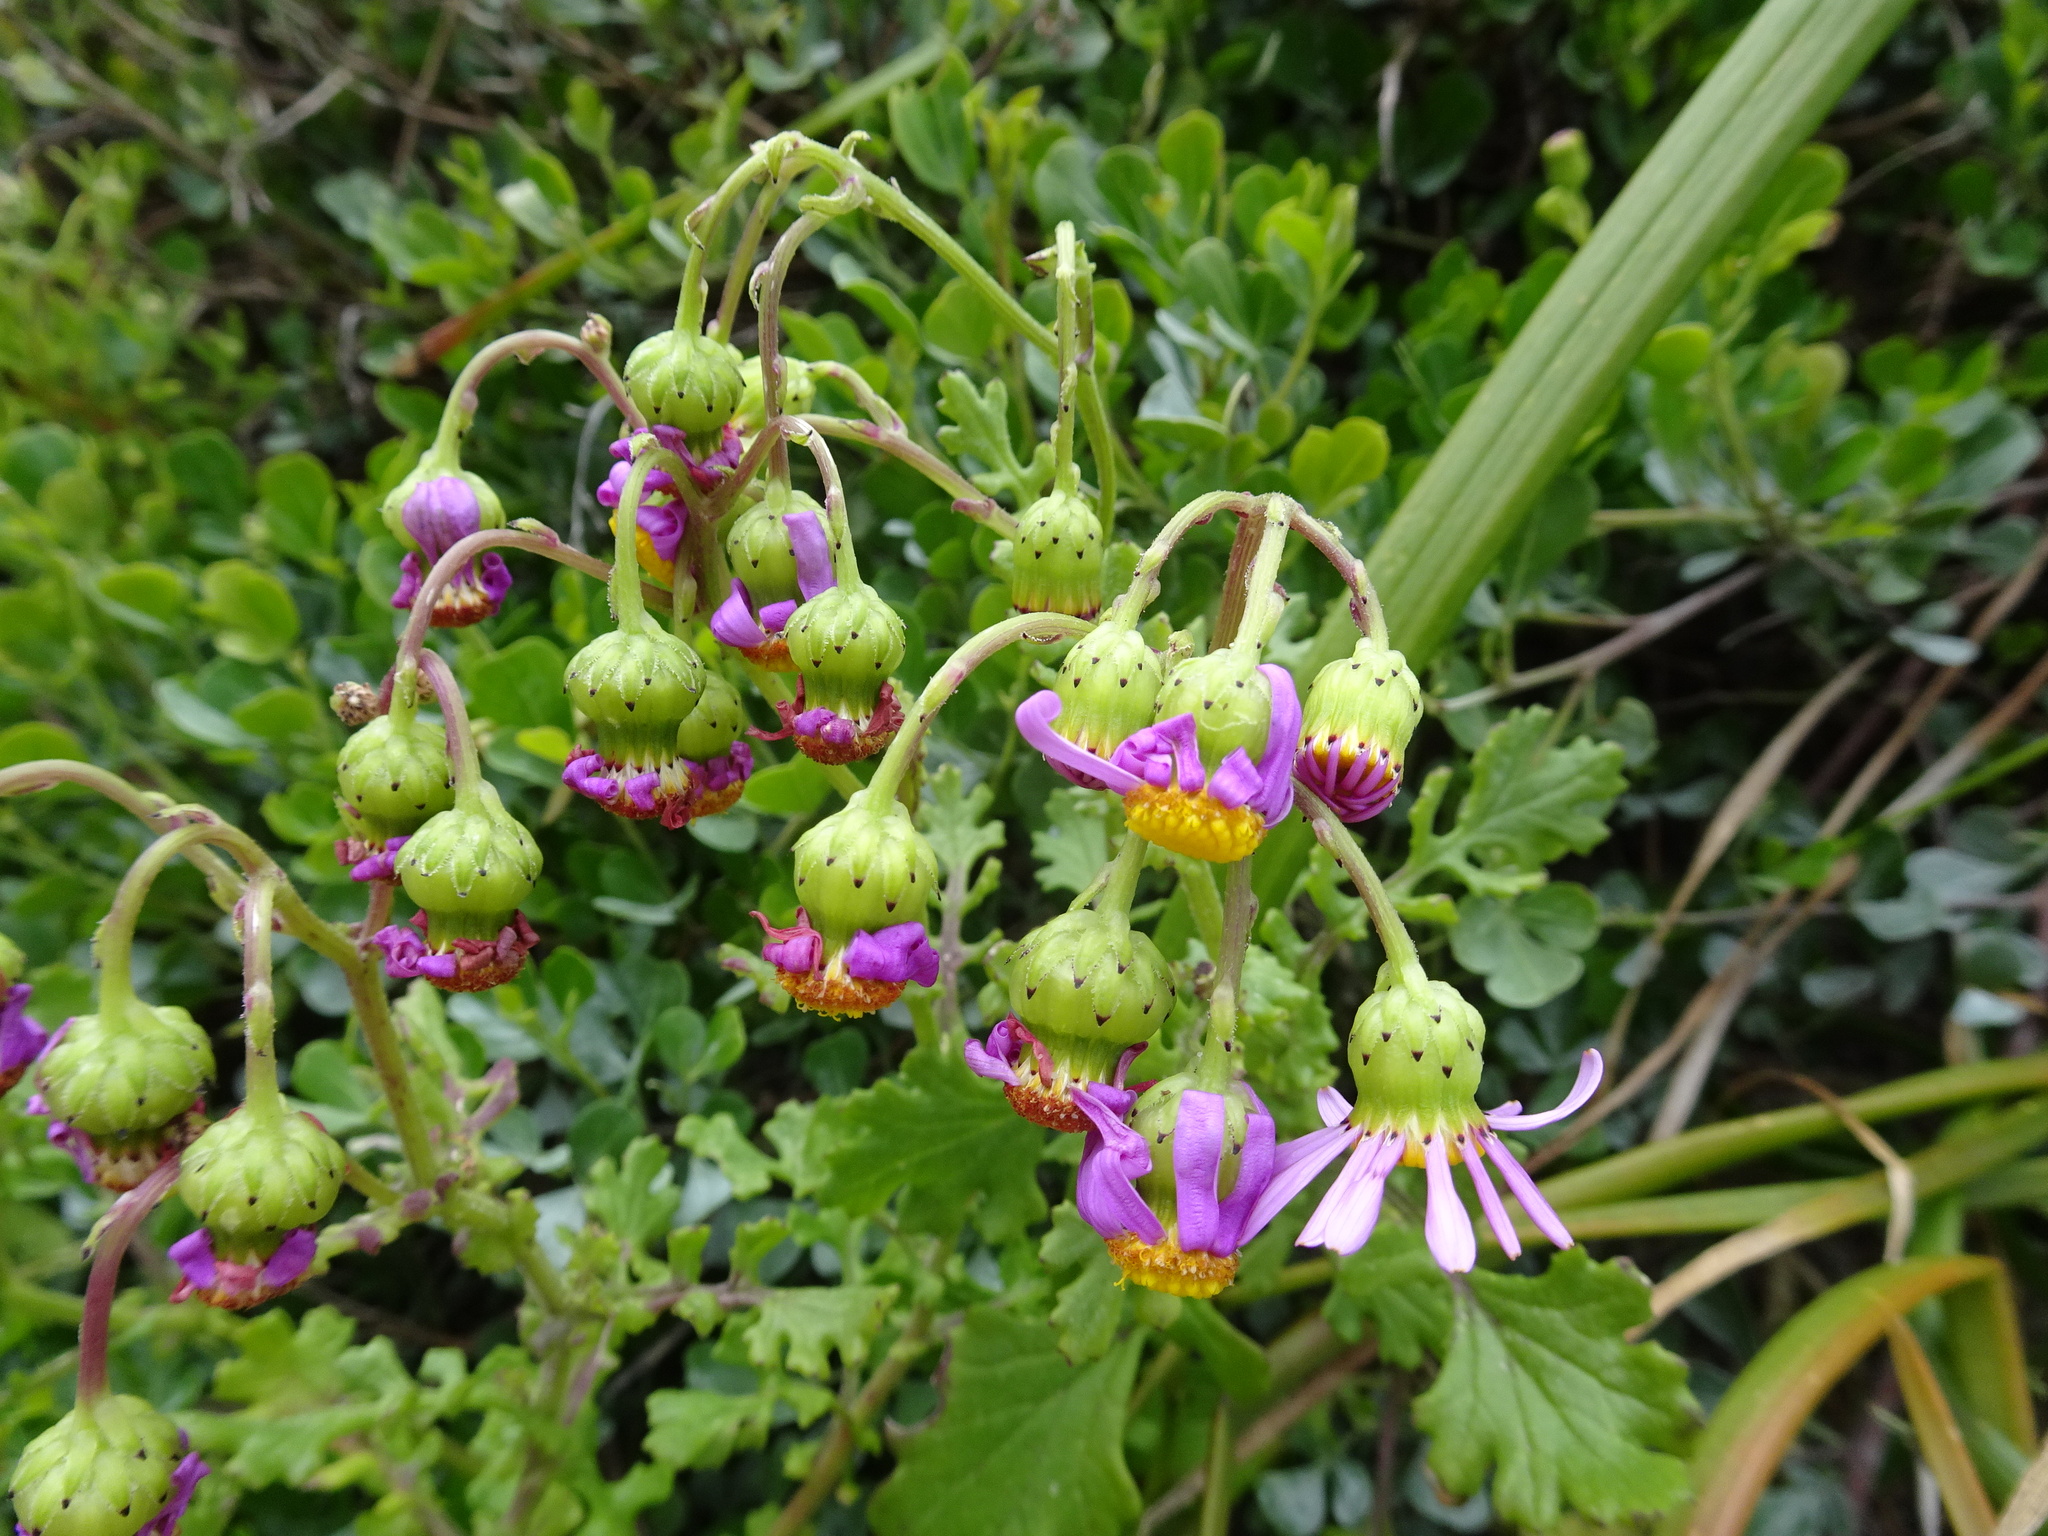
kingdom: Plantae
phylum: Tracheophyta
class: Magnoliopsida
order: Asterales
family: Asteraceae
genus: Senecio
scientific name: Senecio elegans
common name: Purple groundsel
